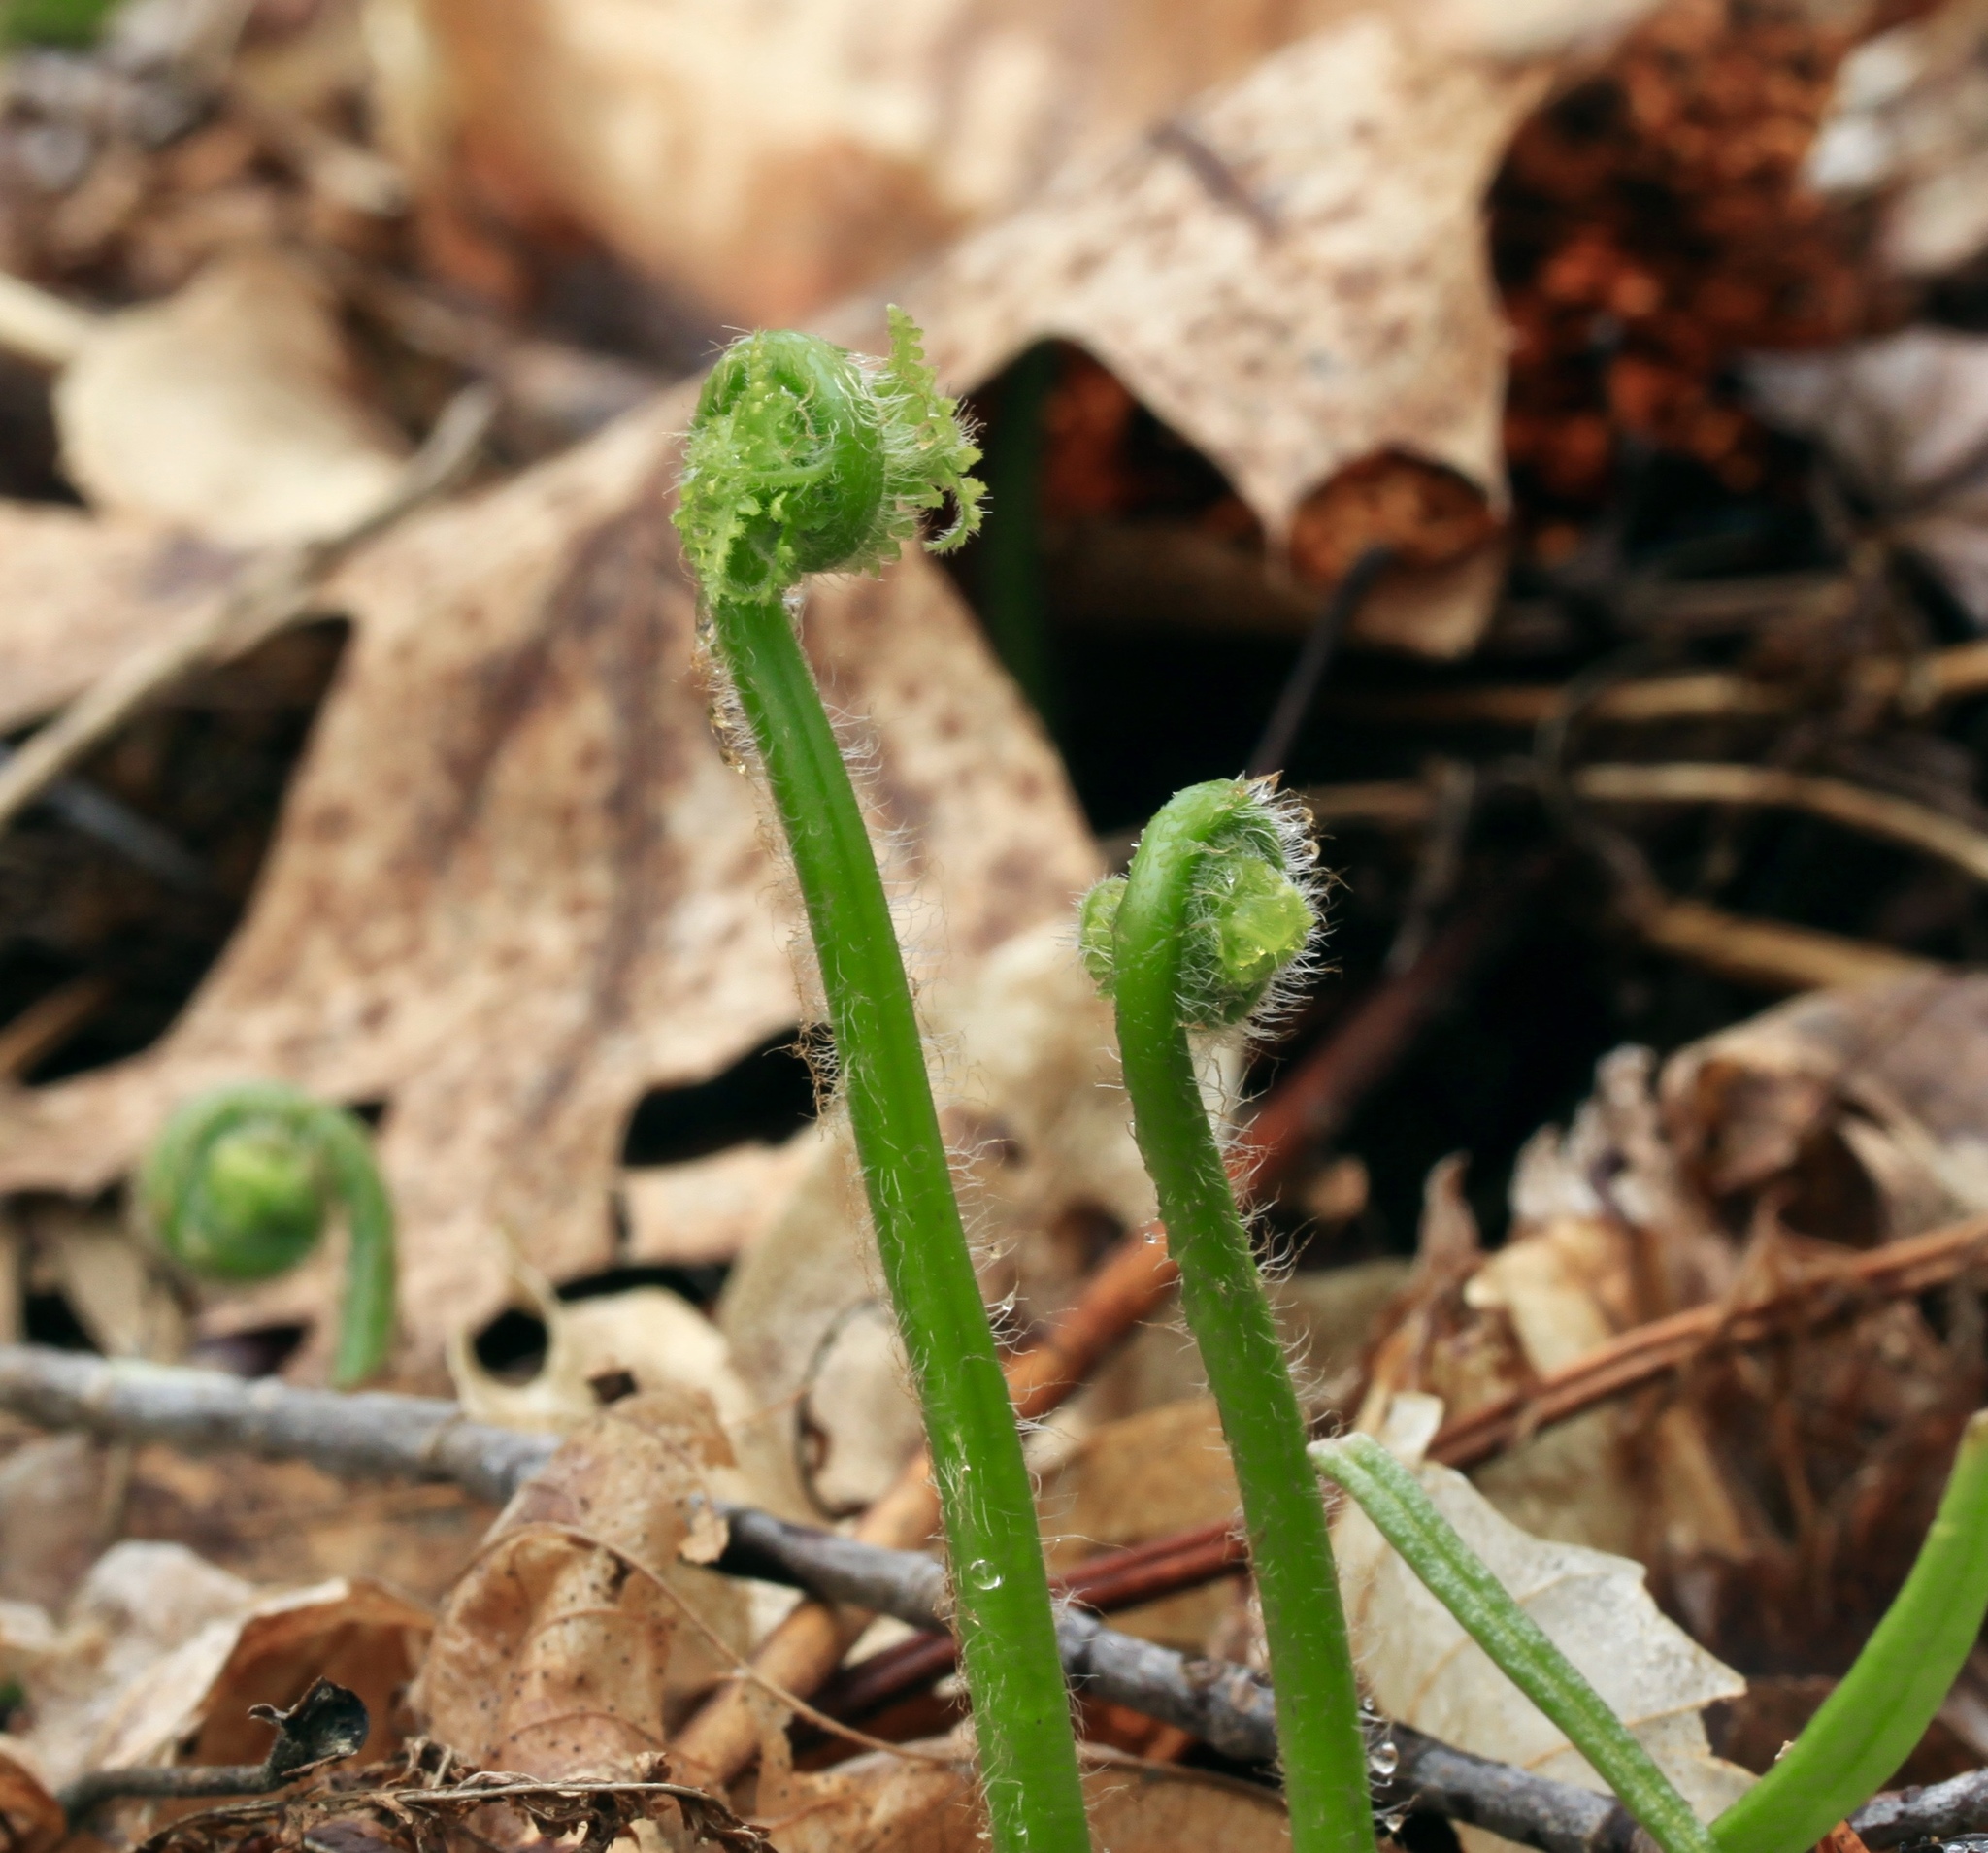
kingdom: Plantae
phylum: Tracheophyta
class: Polypodiopsida
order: Polypodiales
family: Dennstaedtiaceae
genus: Sitobolium
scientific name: Sitobolium punctilobum
